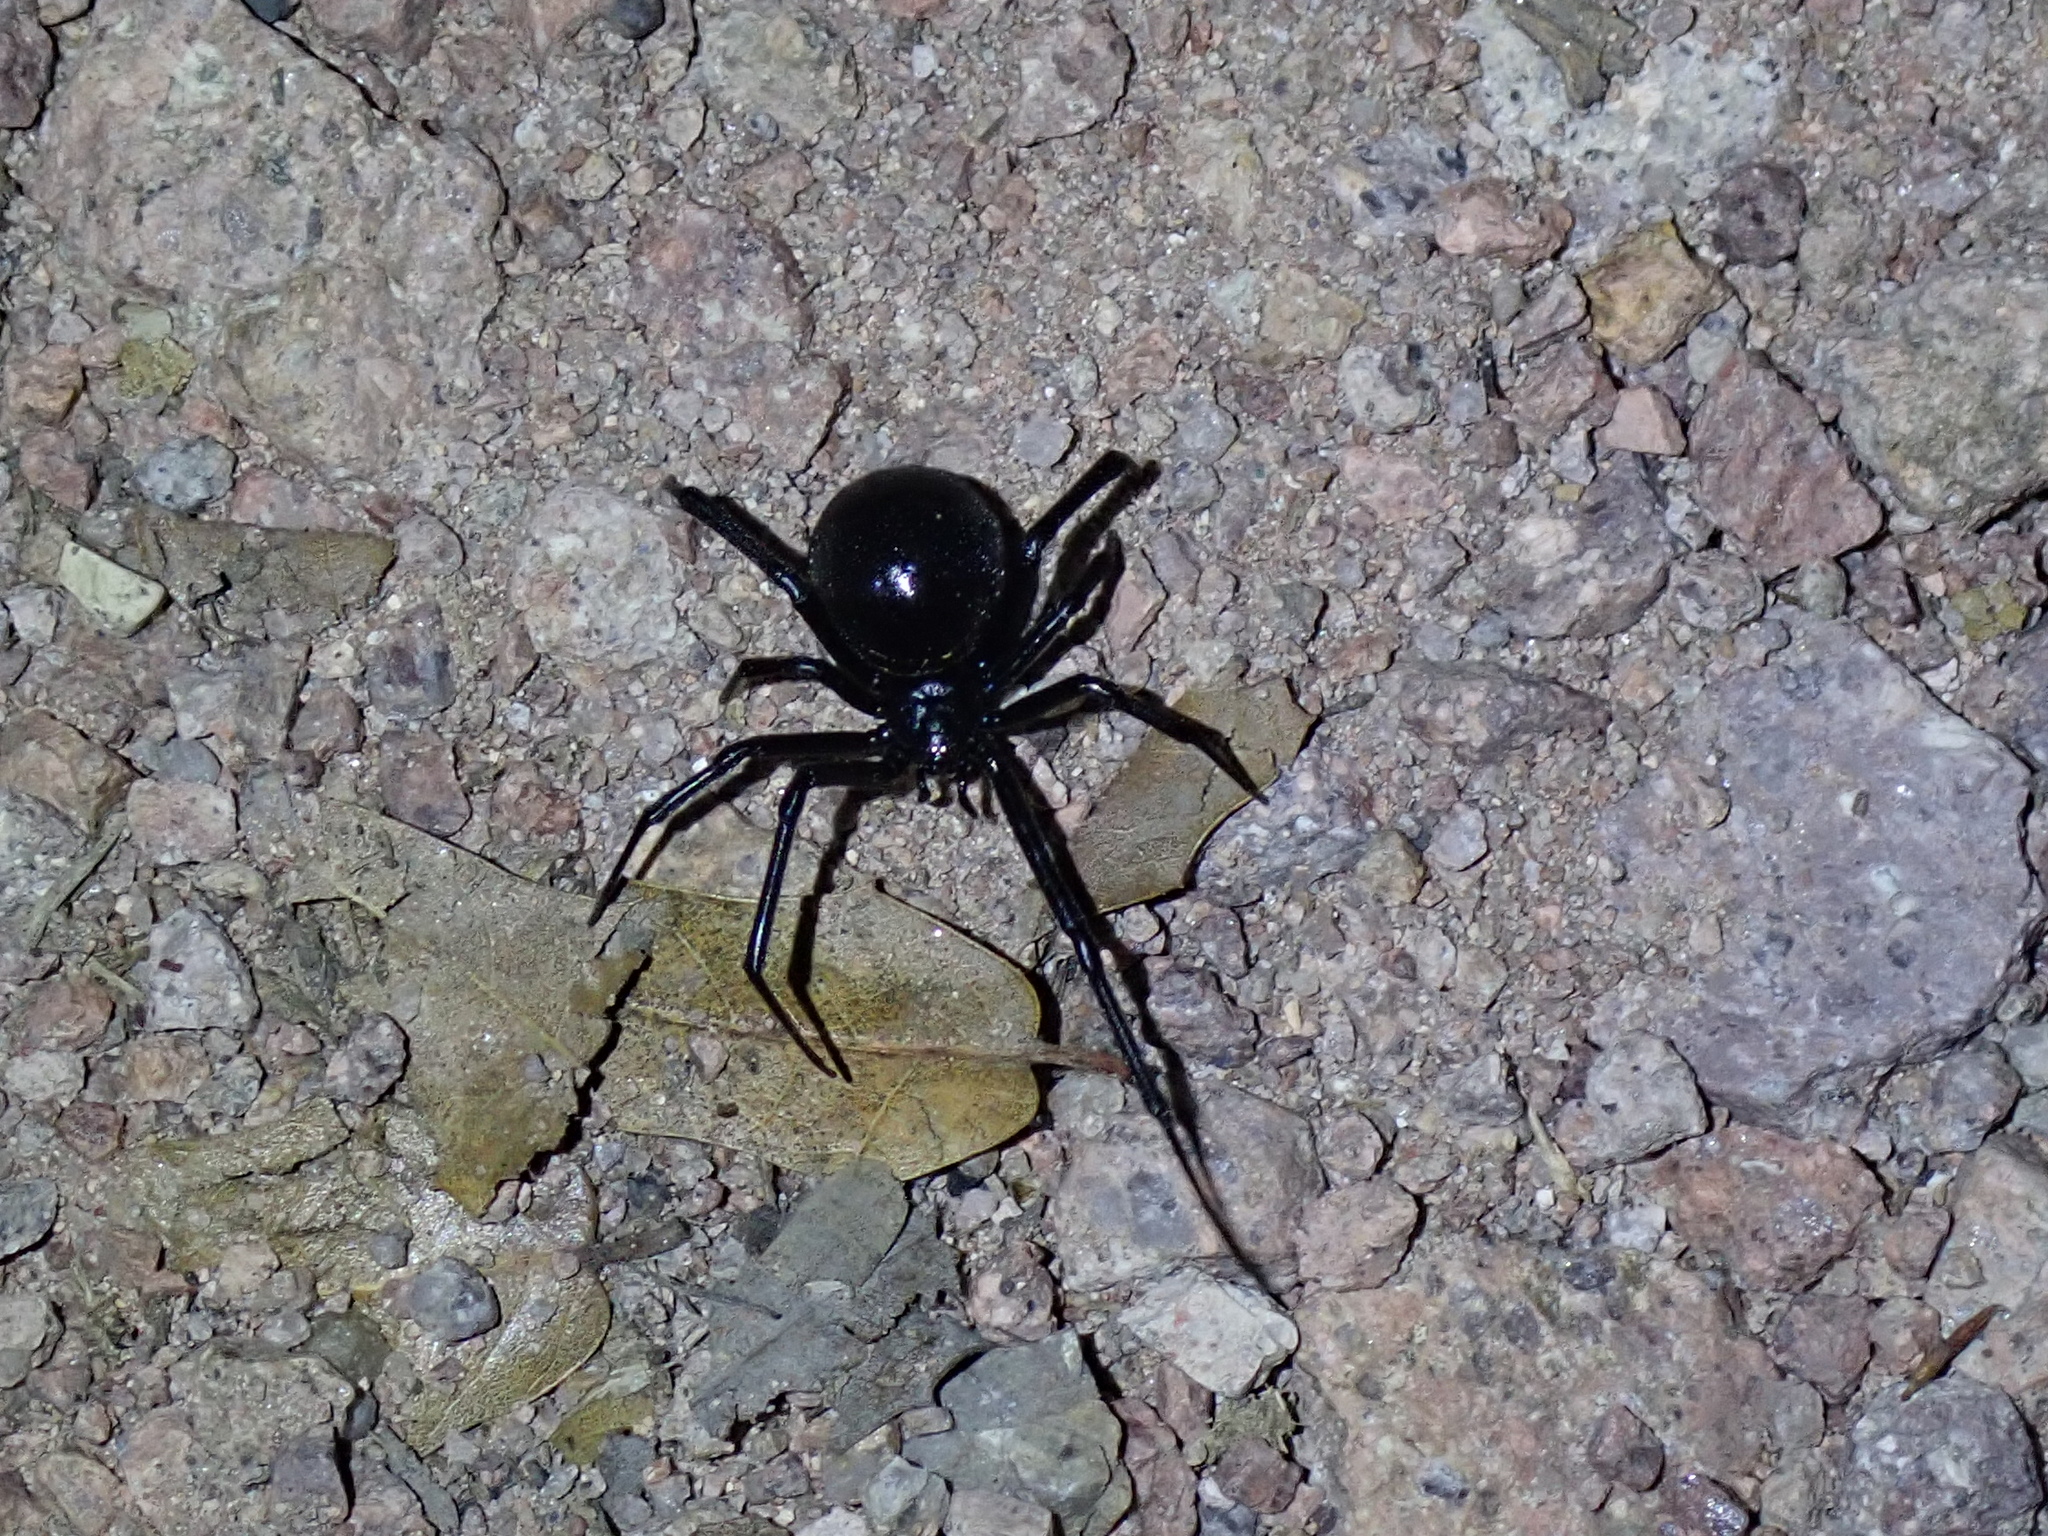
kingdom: Animalia
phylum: Arthropoda
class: Arachnida
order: Araneae
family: Theridiidae
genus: Latrodectus
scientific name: Latrodectus hesperus
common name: Western black widow
